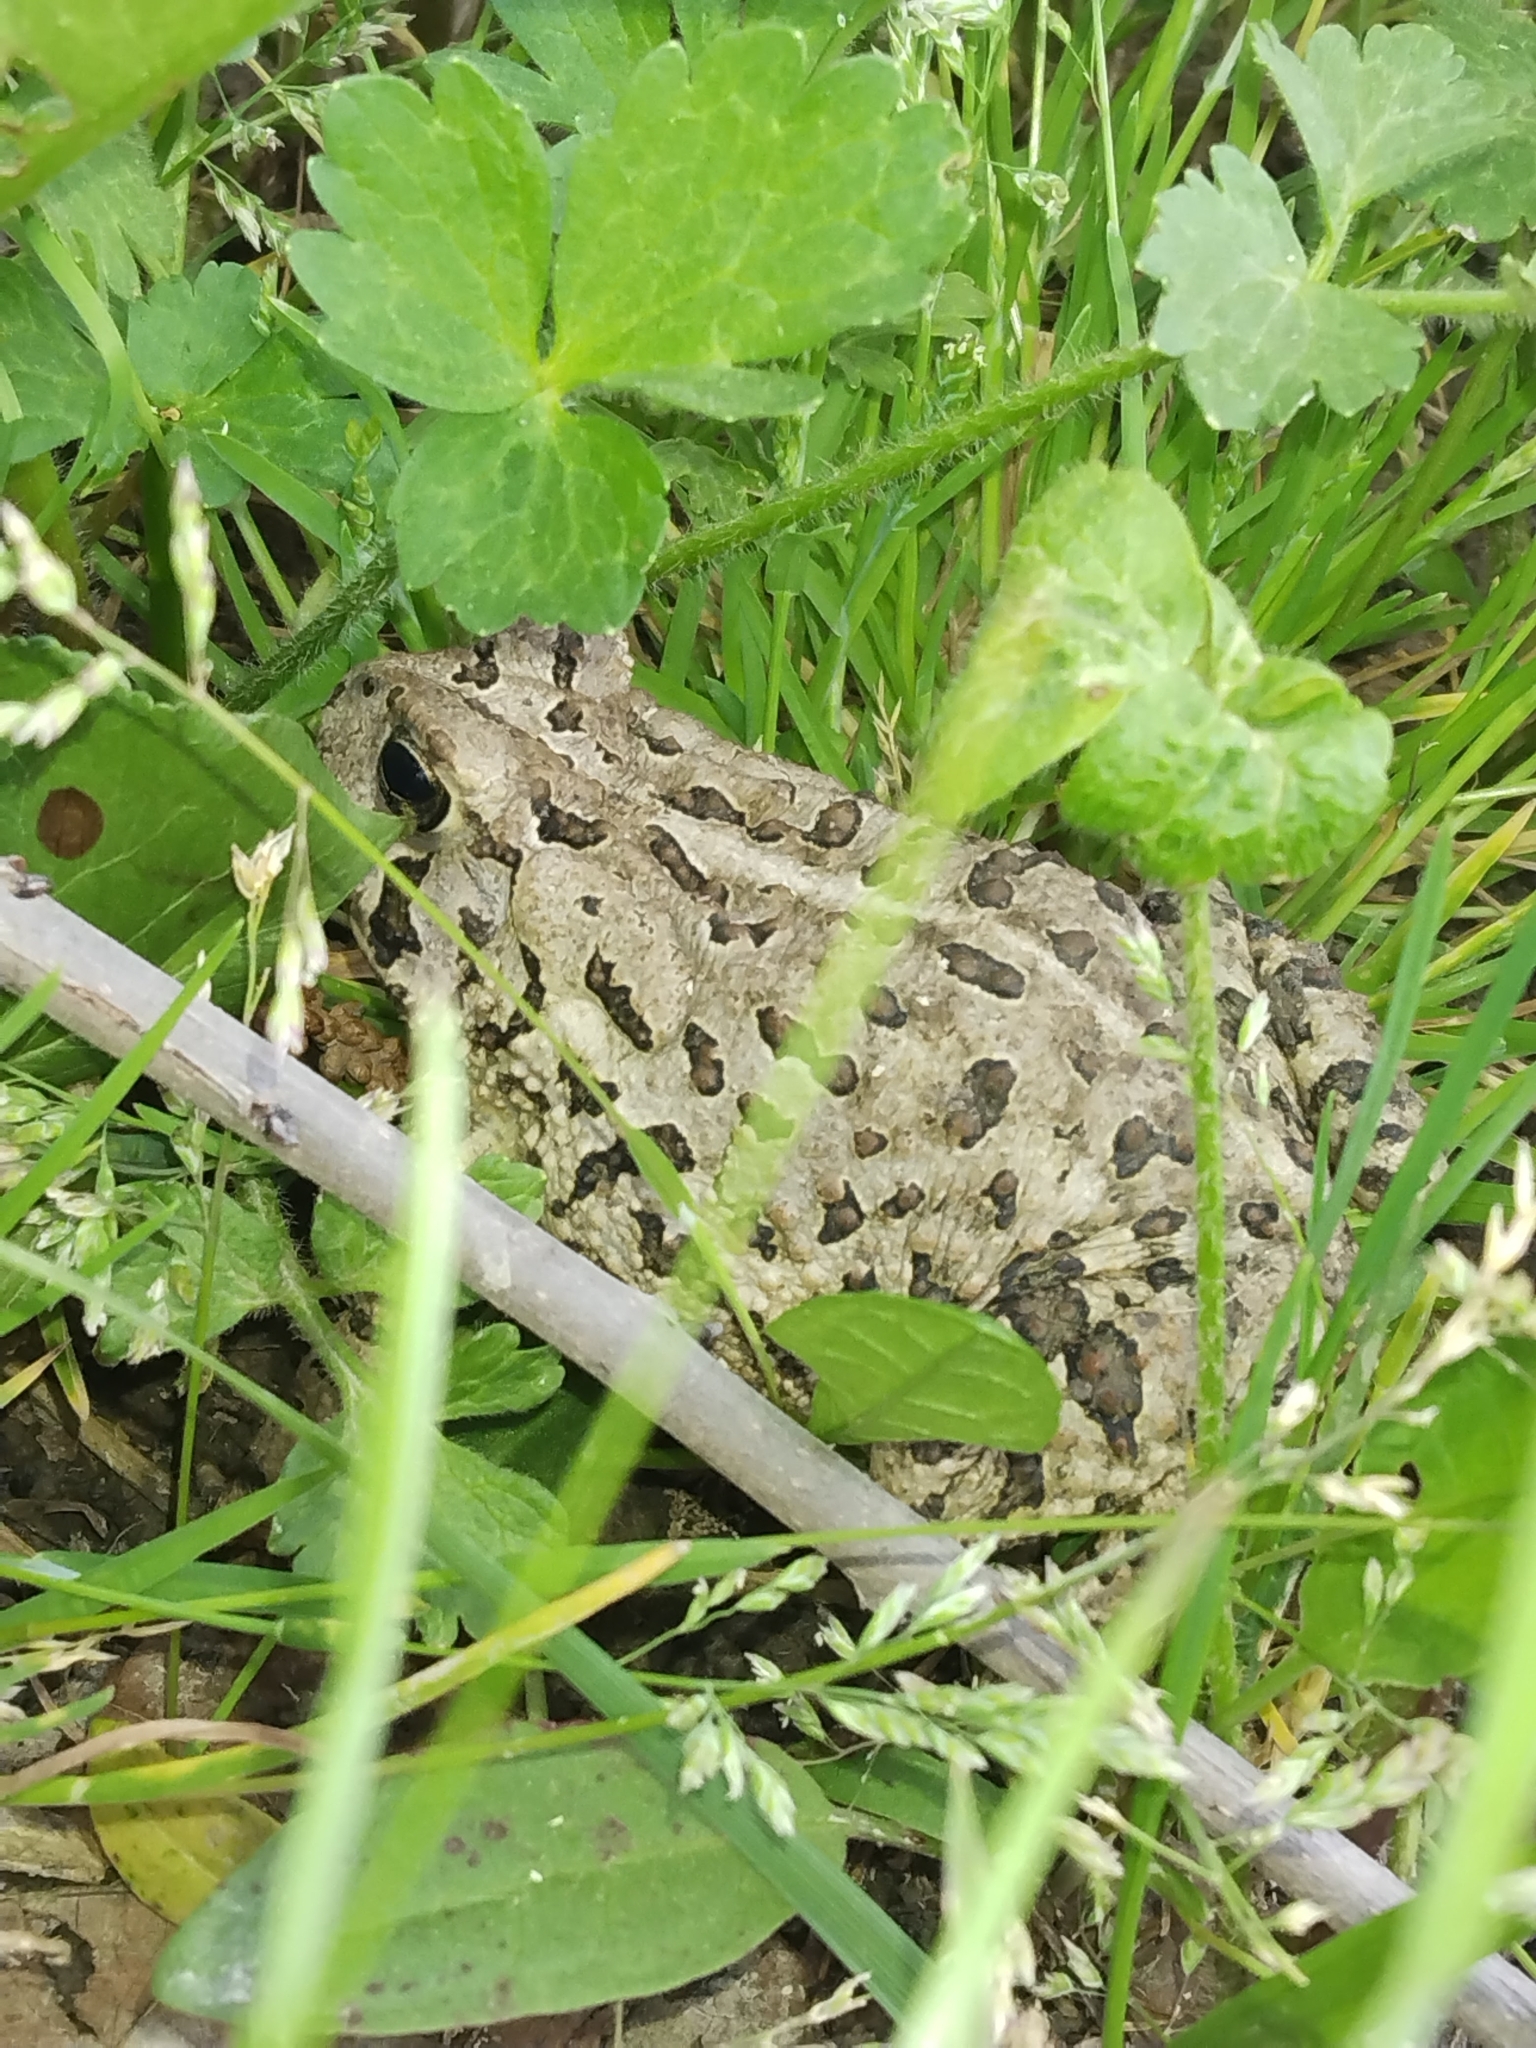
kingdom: Animalia
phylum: Chordata
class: Amphibia
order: Anura
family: Bufonidae
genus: Anaxyrus
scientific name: Anaxyrus fowleri
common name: Fowler's toad
